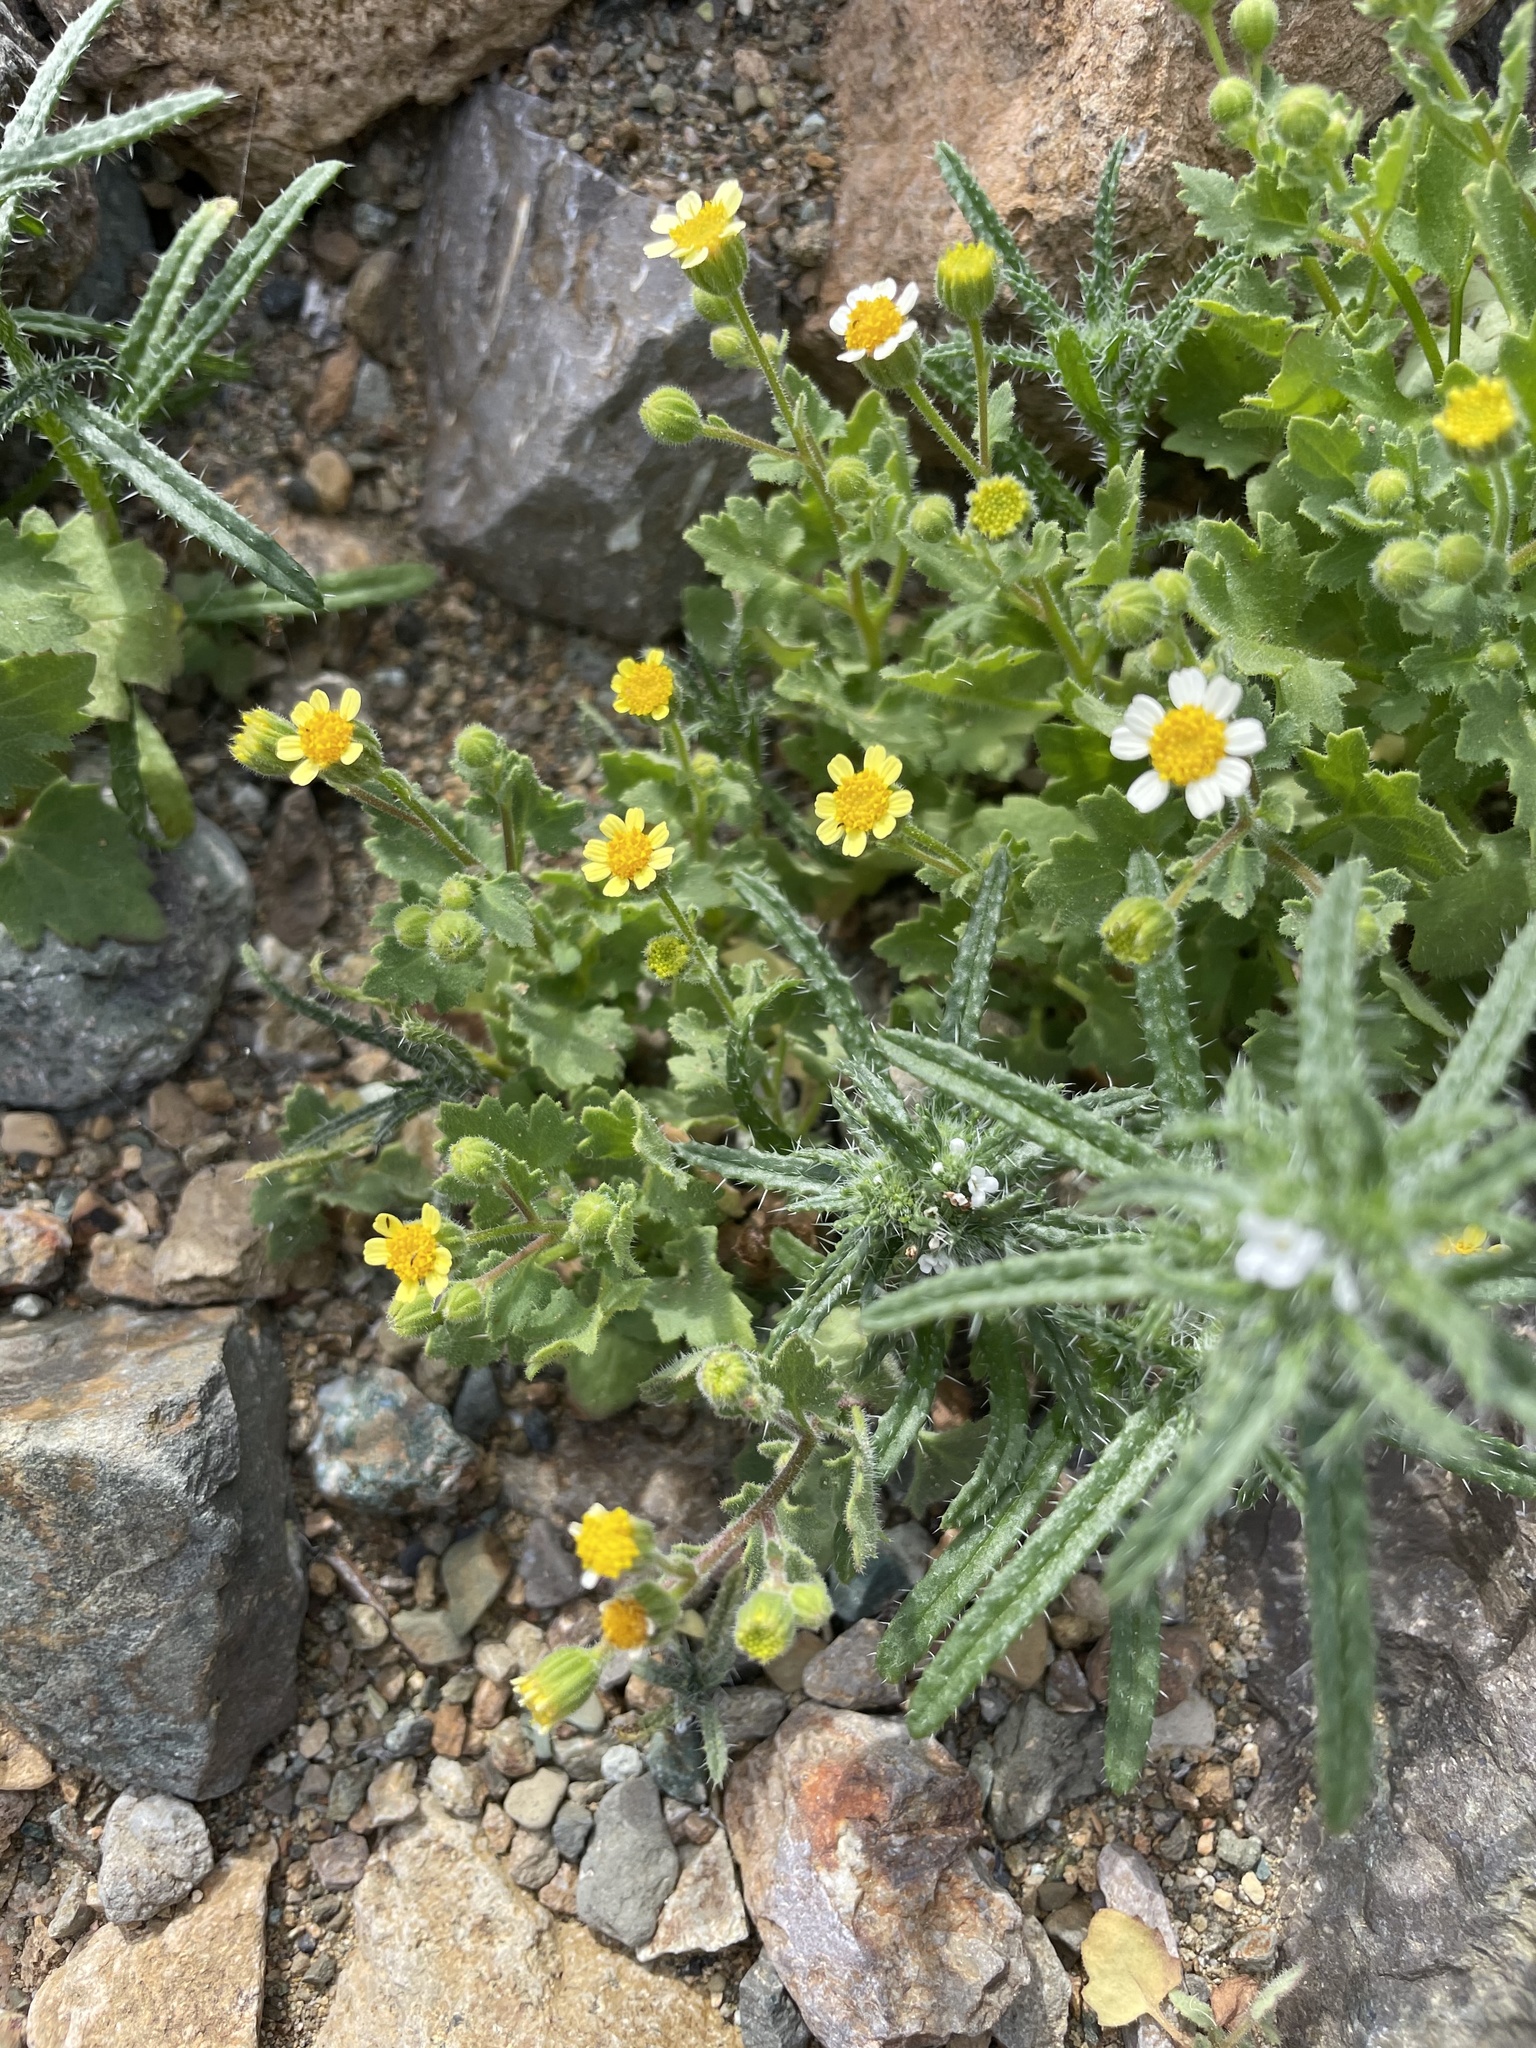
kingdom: Plantae
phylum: Tracheophyta
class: Magnoliopsida
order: Asterales
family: Asteraceae
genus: Perityle
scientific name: Perityle californica
